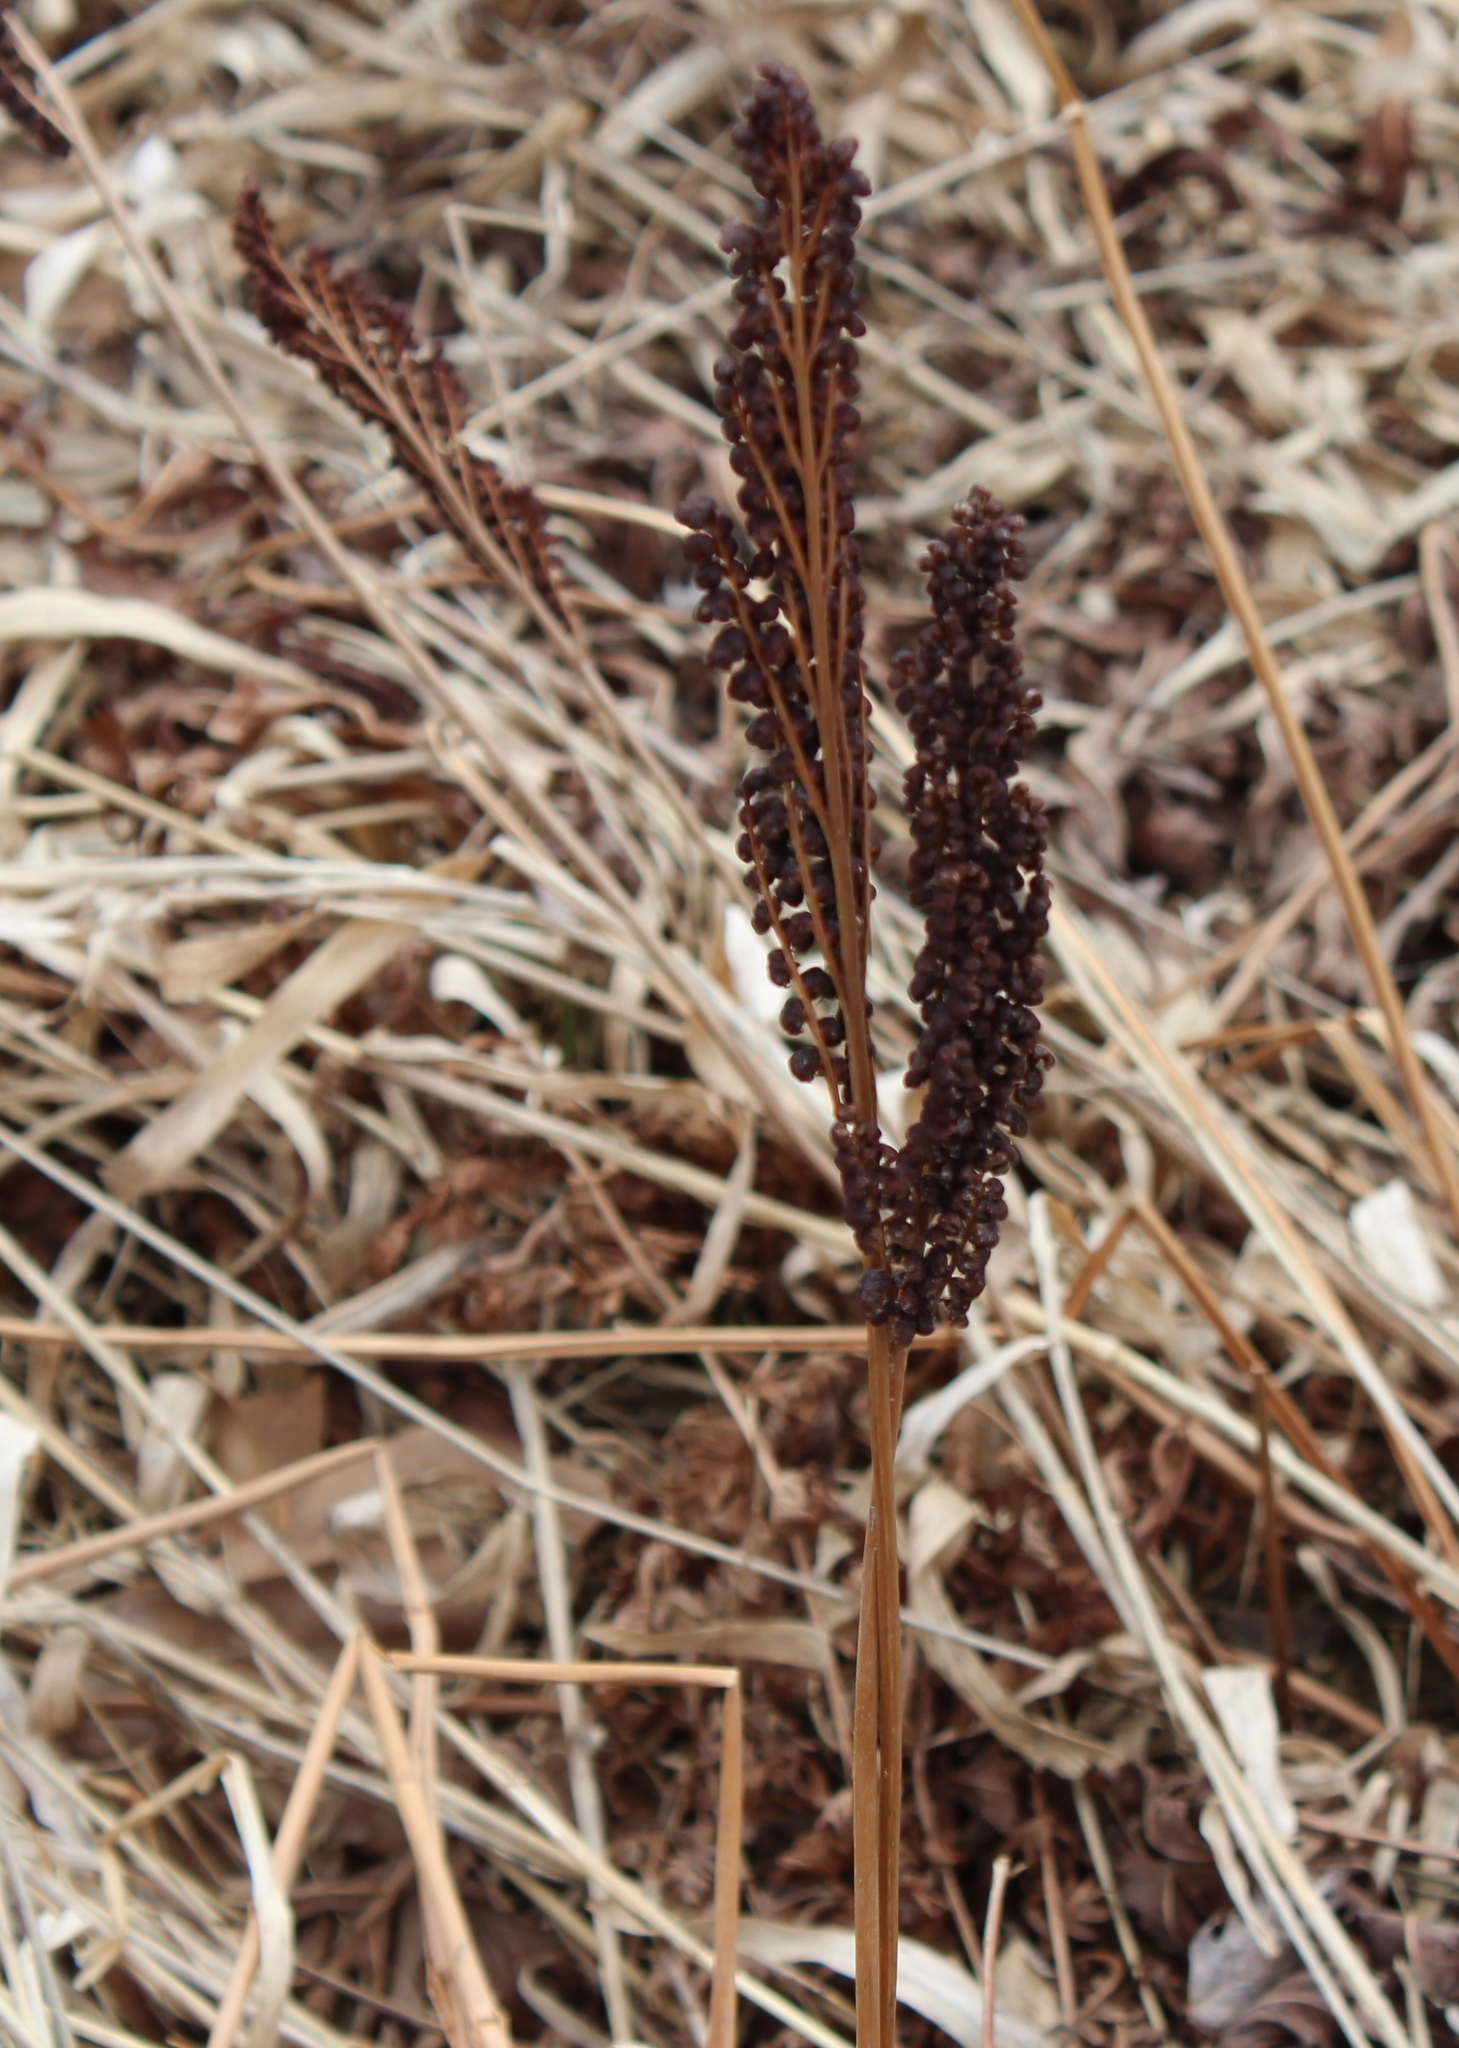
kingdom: Plantae
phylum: Tracheophyta
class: Polypodiopsida
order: Polypodiales
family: Onocleaceae
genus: Onoclea
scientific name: Onoclea sensibilis
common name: Sensitive fern
